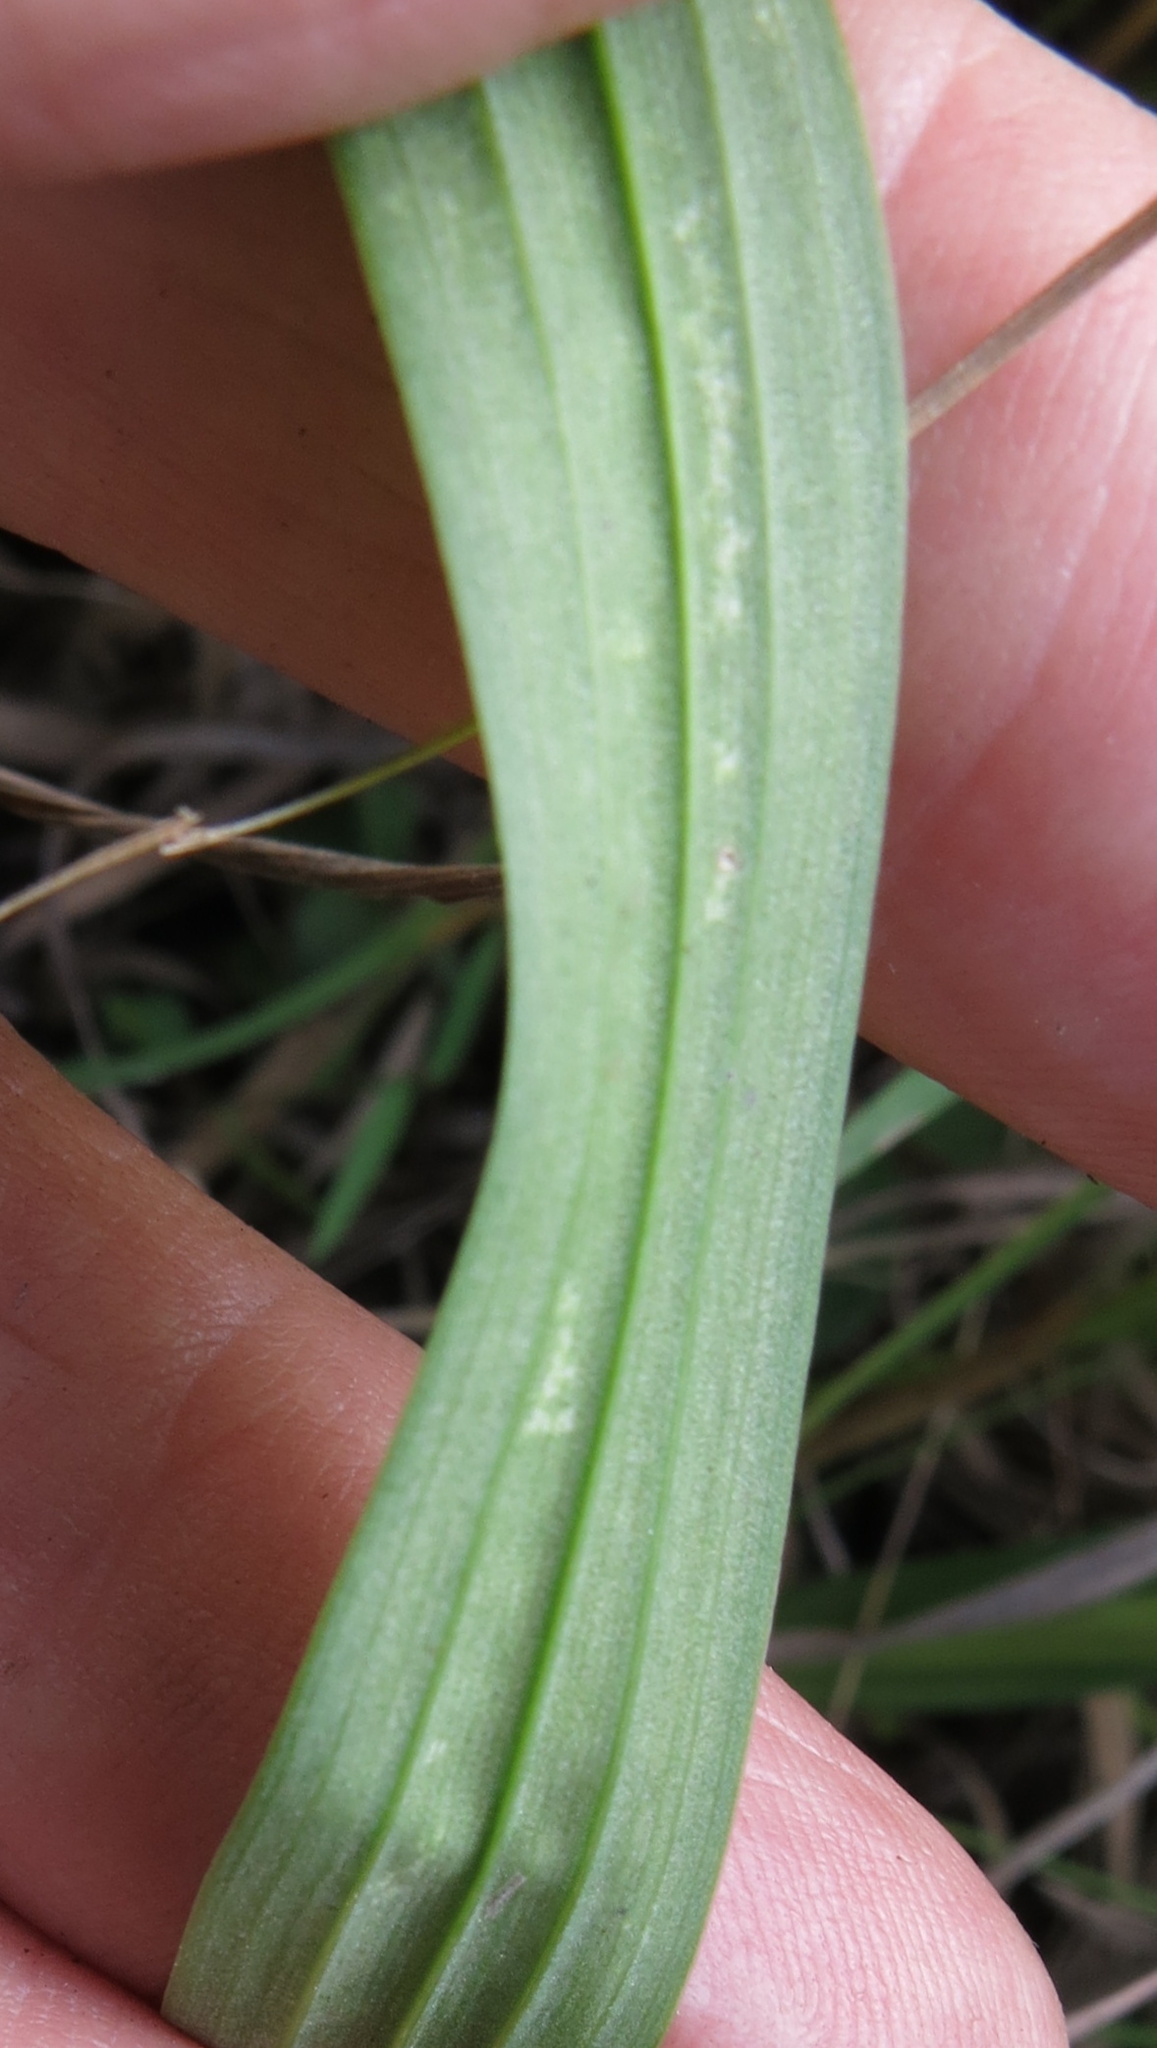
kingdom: Plantae
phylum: Tracheophyta
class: Liliopsida
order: Asparagales
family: Orchidaceae
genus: Eulophia
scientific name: Eulophia ovalis
